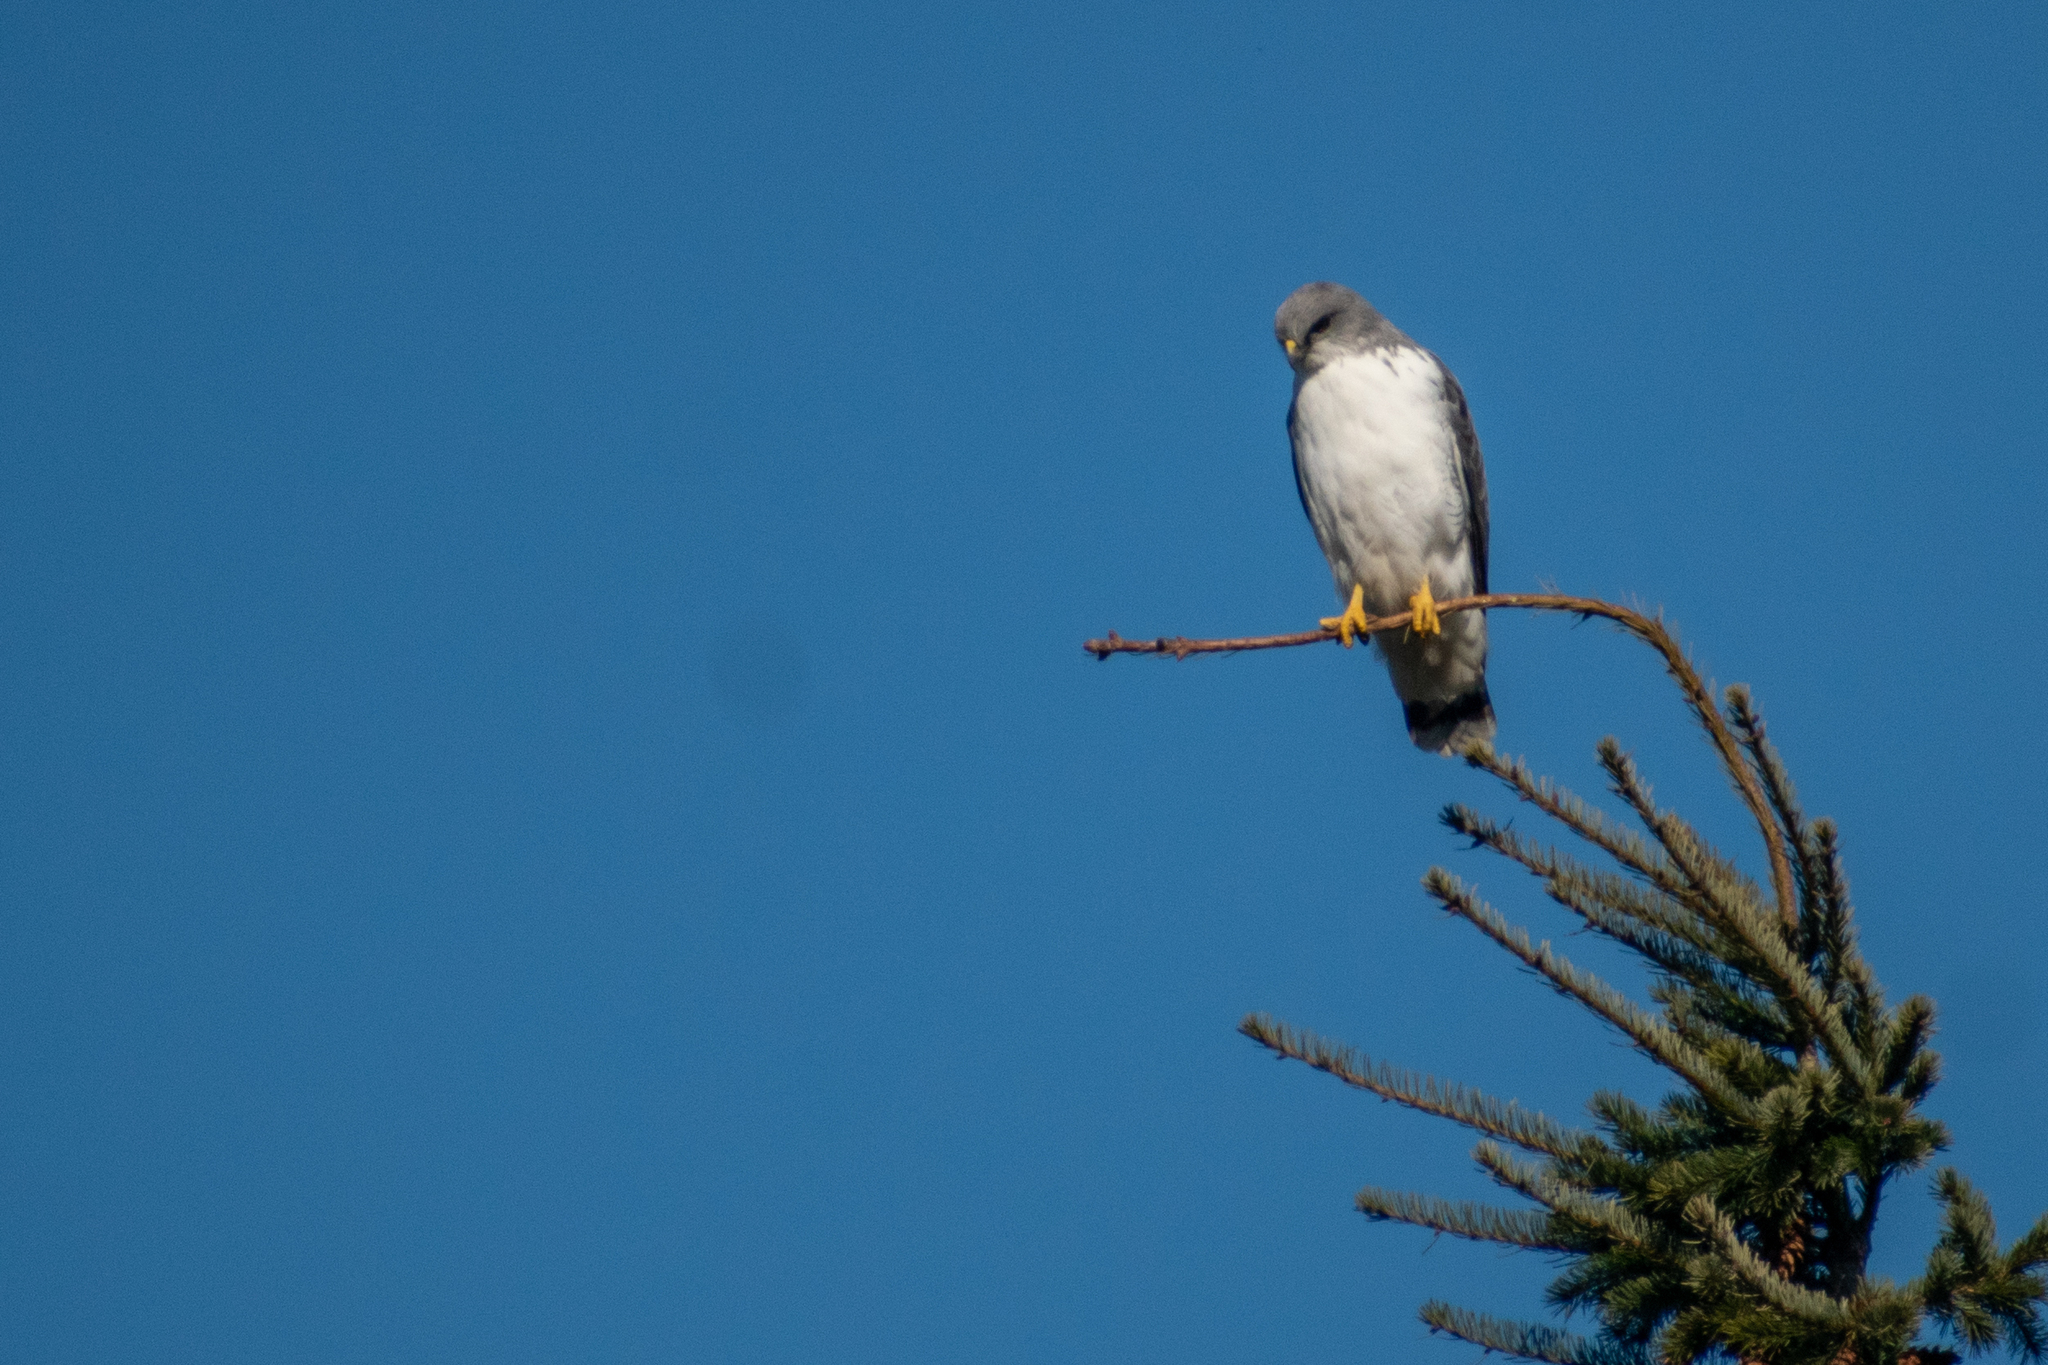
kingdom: Animalia
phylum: Chordata
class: Aves
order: Accipitriformes
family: Accipitridae
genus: Buteo
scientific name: Buteo polyosoma
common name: Variable hawk
